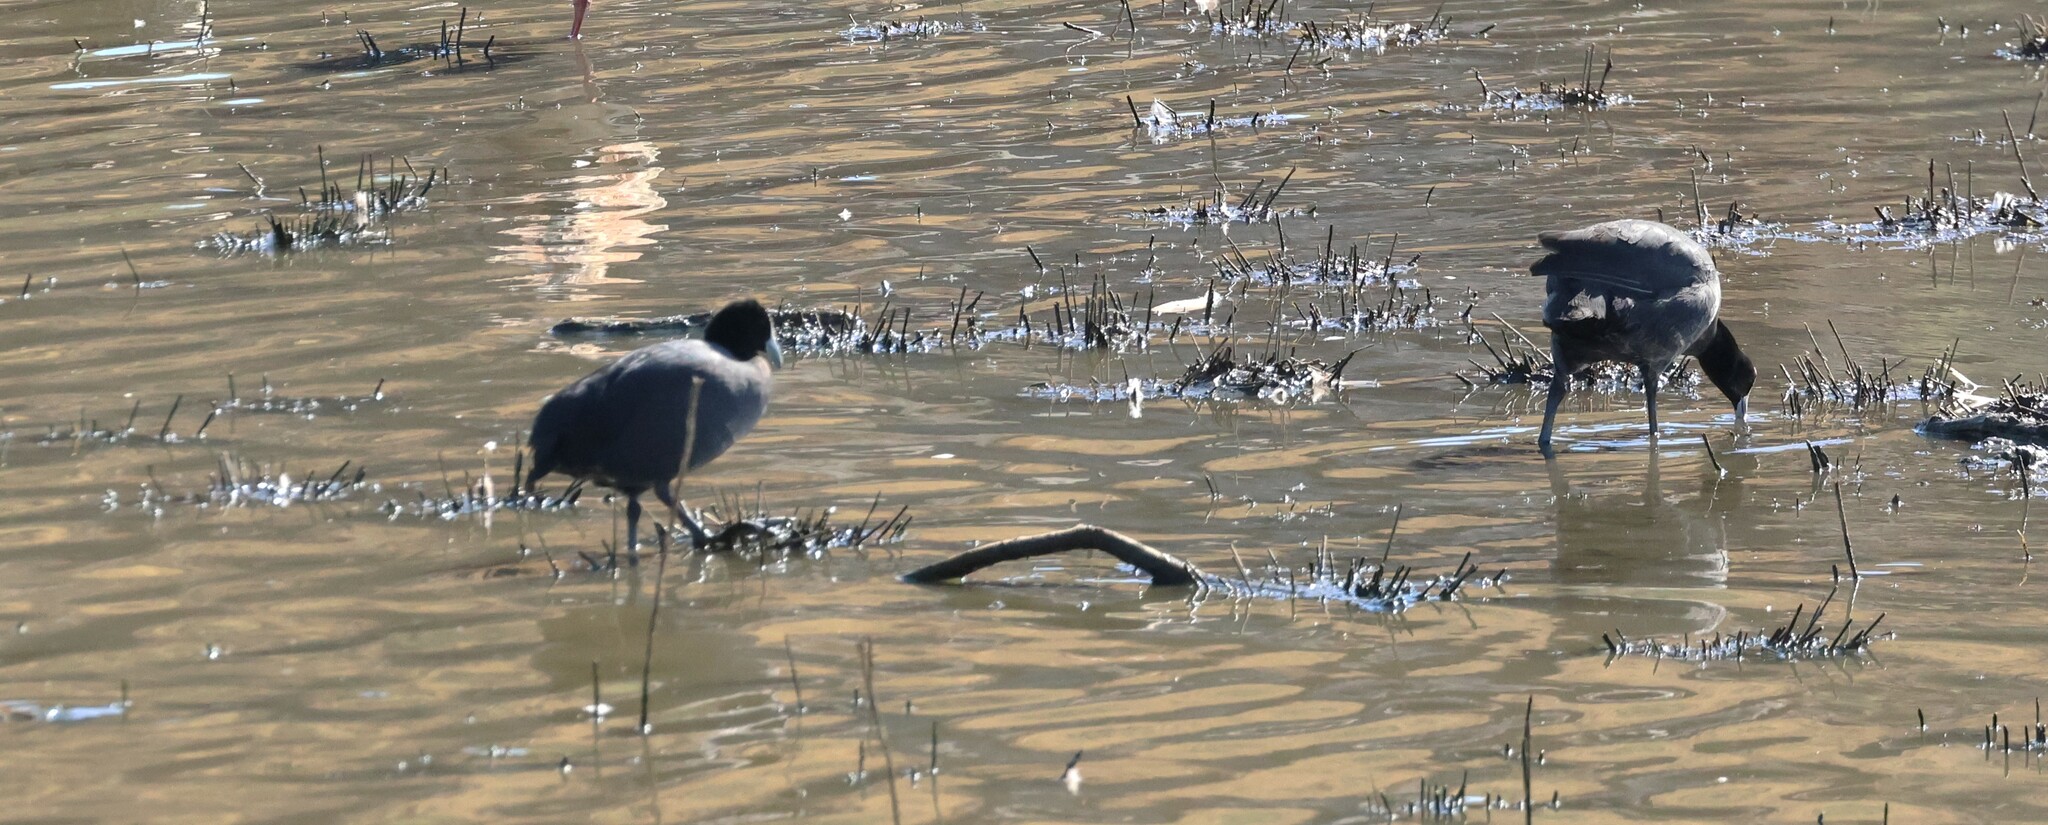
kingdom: Animalia
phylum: Chordata
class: Aves
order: Gruiformes
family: Rallidae
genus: Fulica
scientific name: Fulica cristata
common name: Red-knobbed coot
